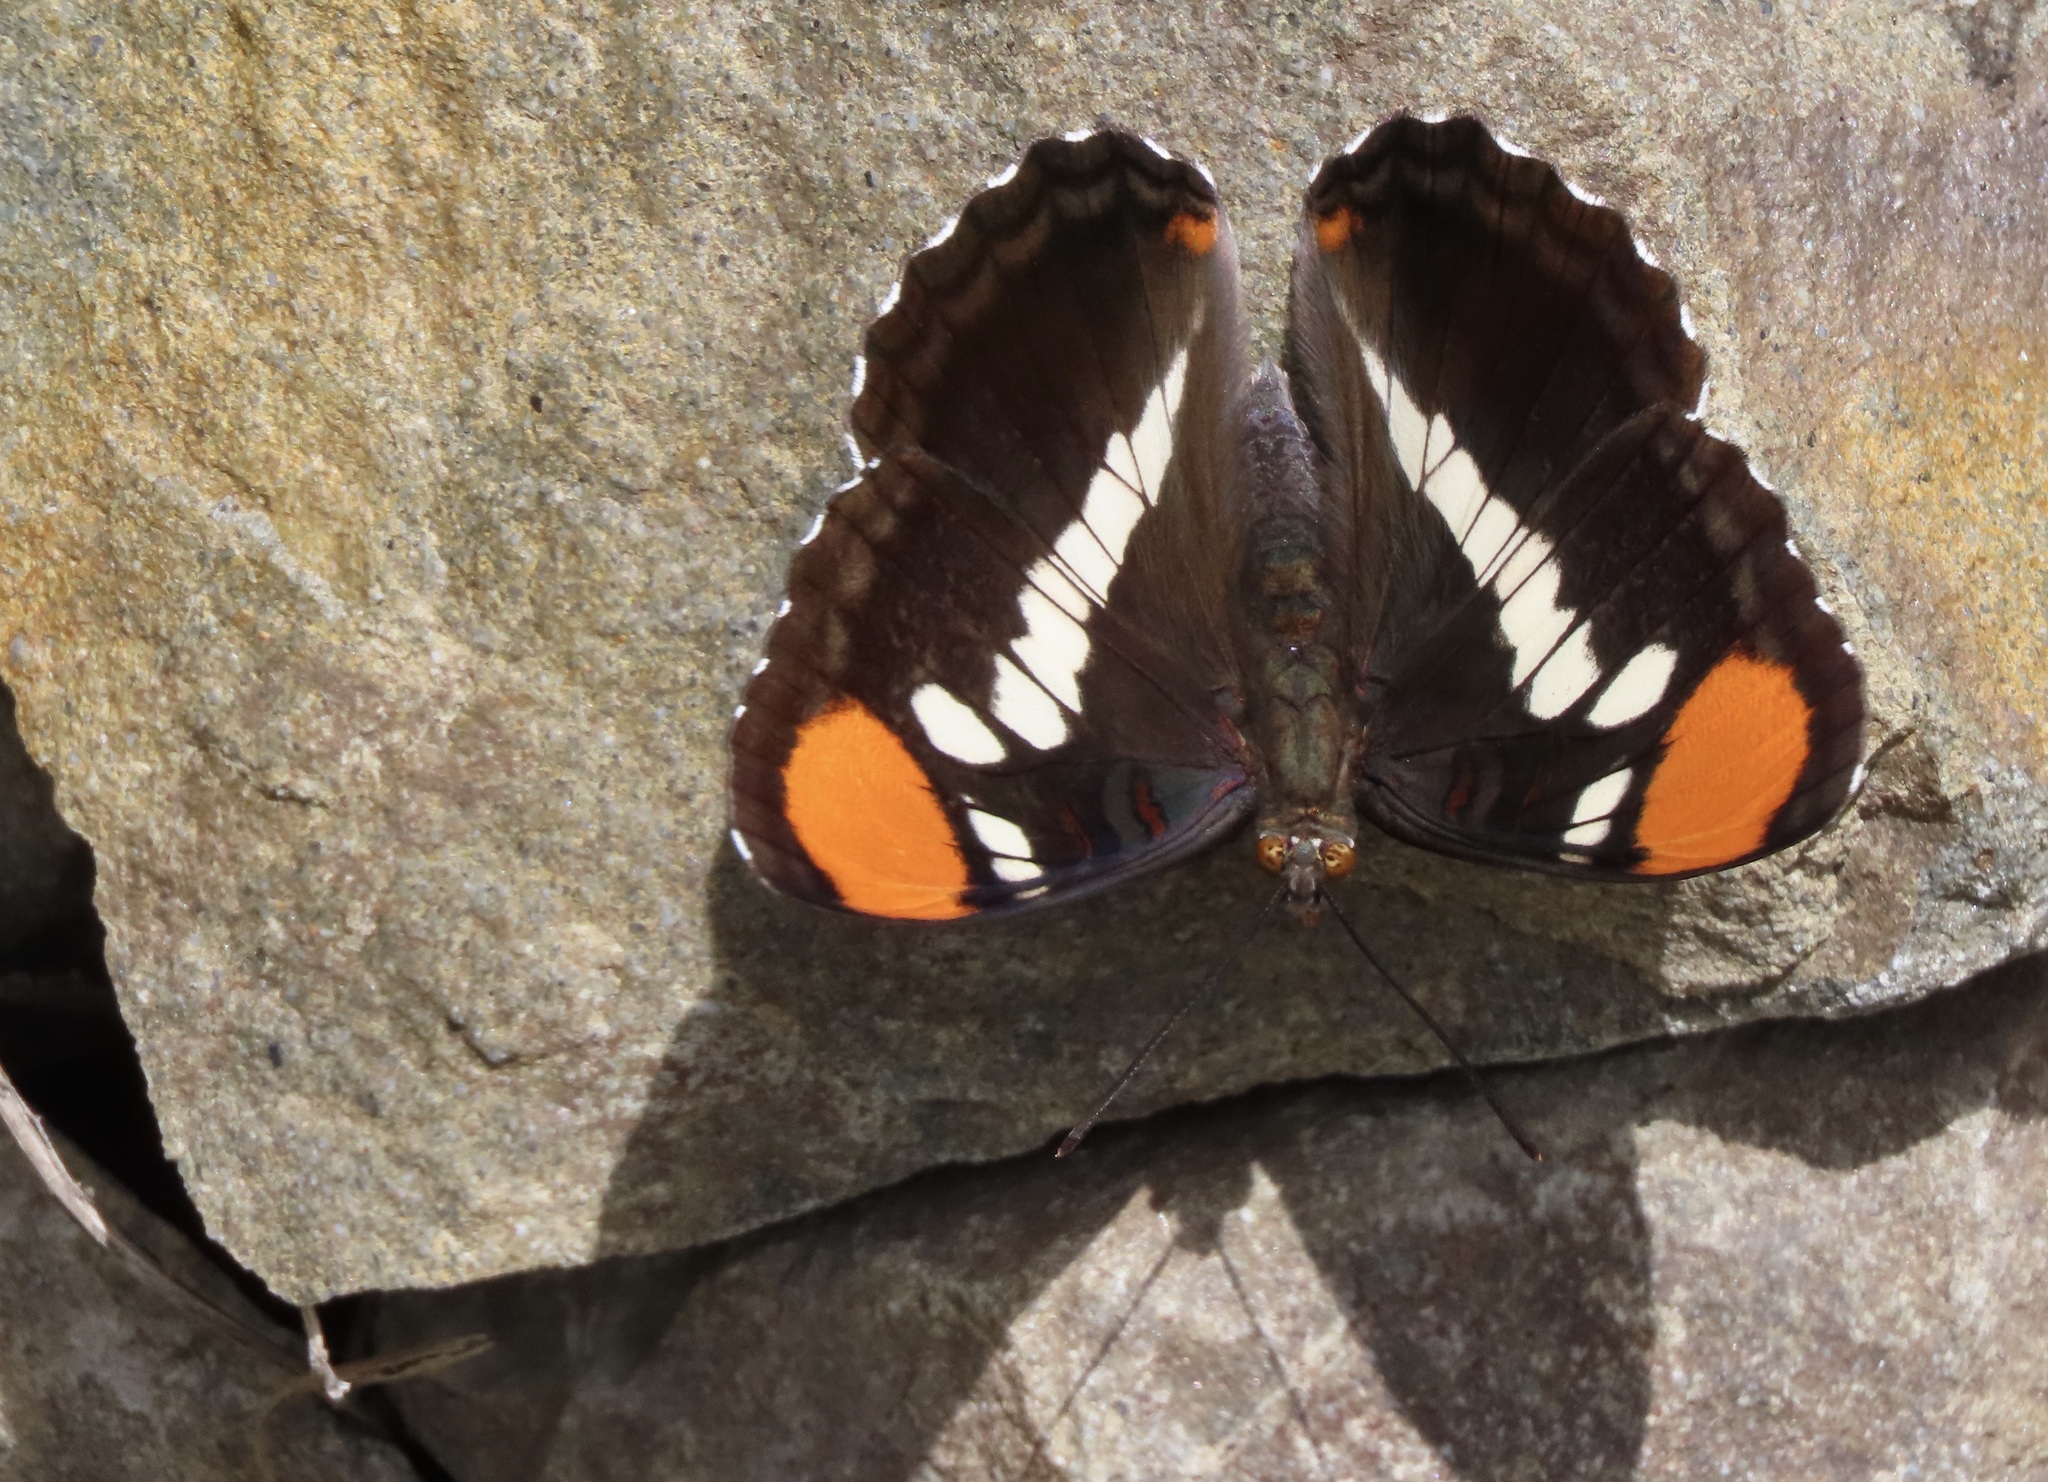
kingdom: Animalia
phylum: Arthropoda
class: Insecta
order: Lepidoptera
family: Nymphalidae
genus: Limenitis
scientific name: Limenitis bredowii
